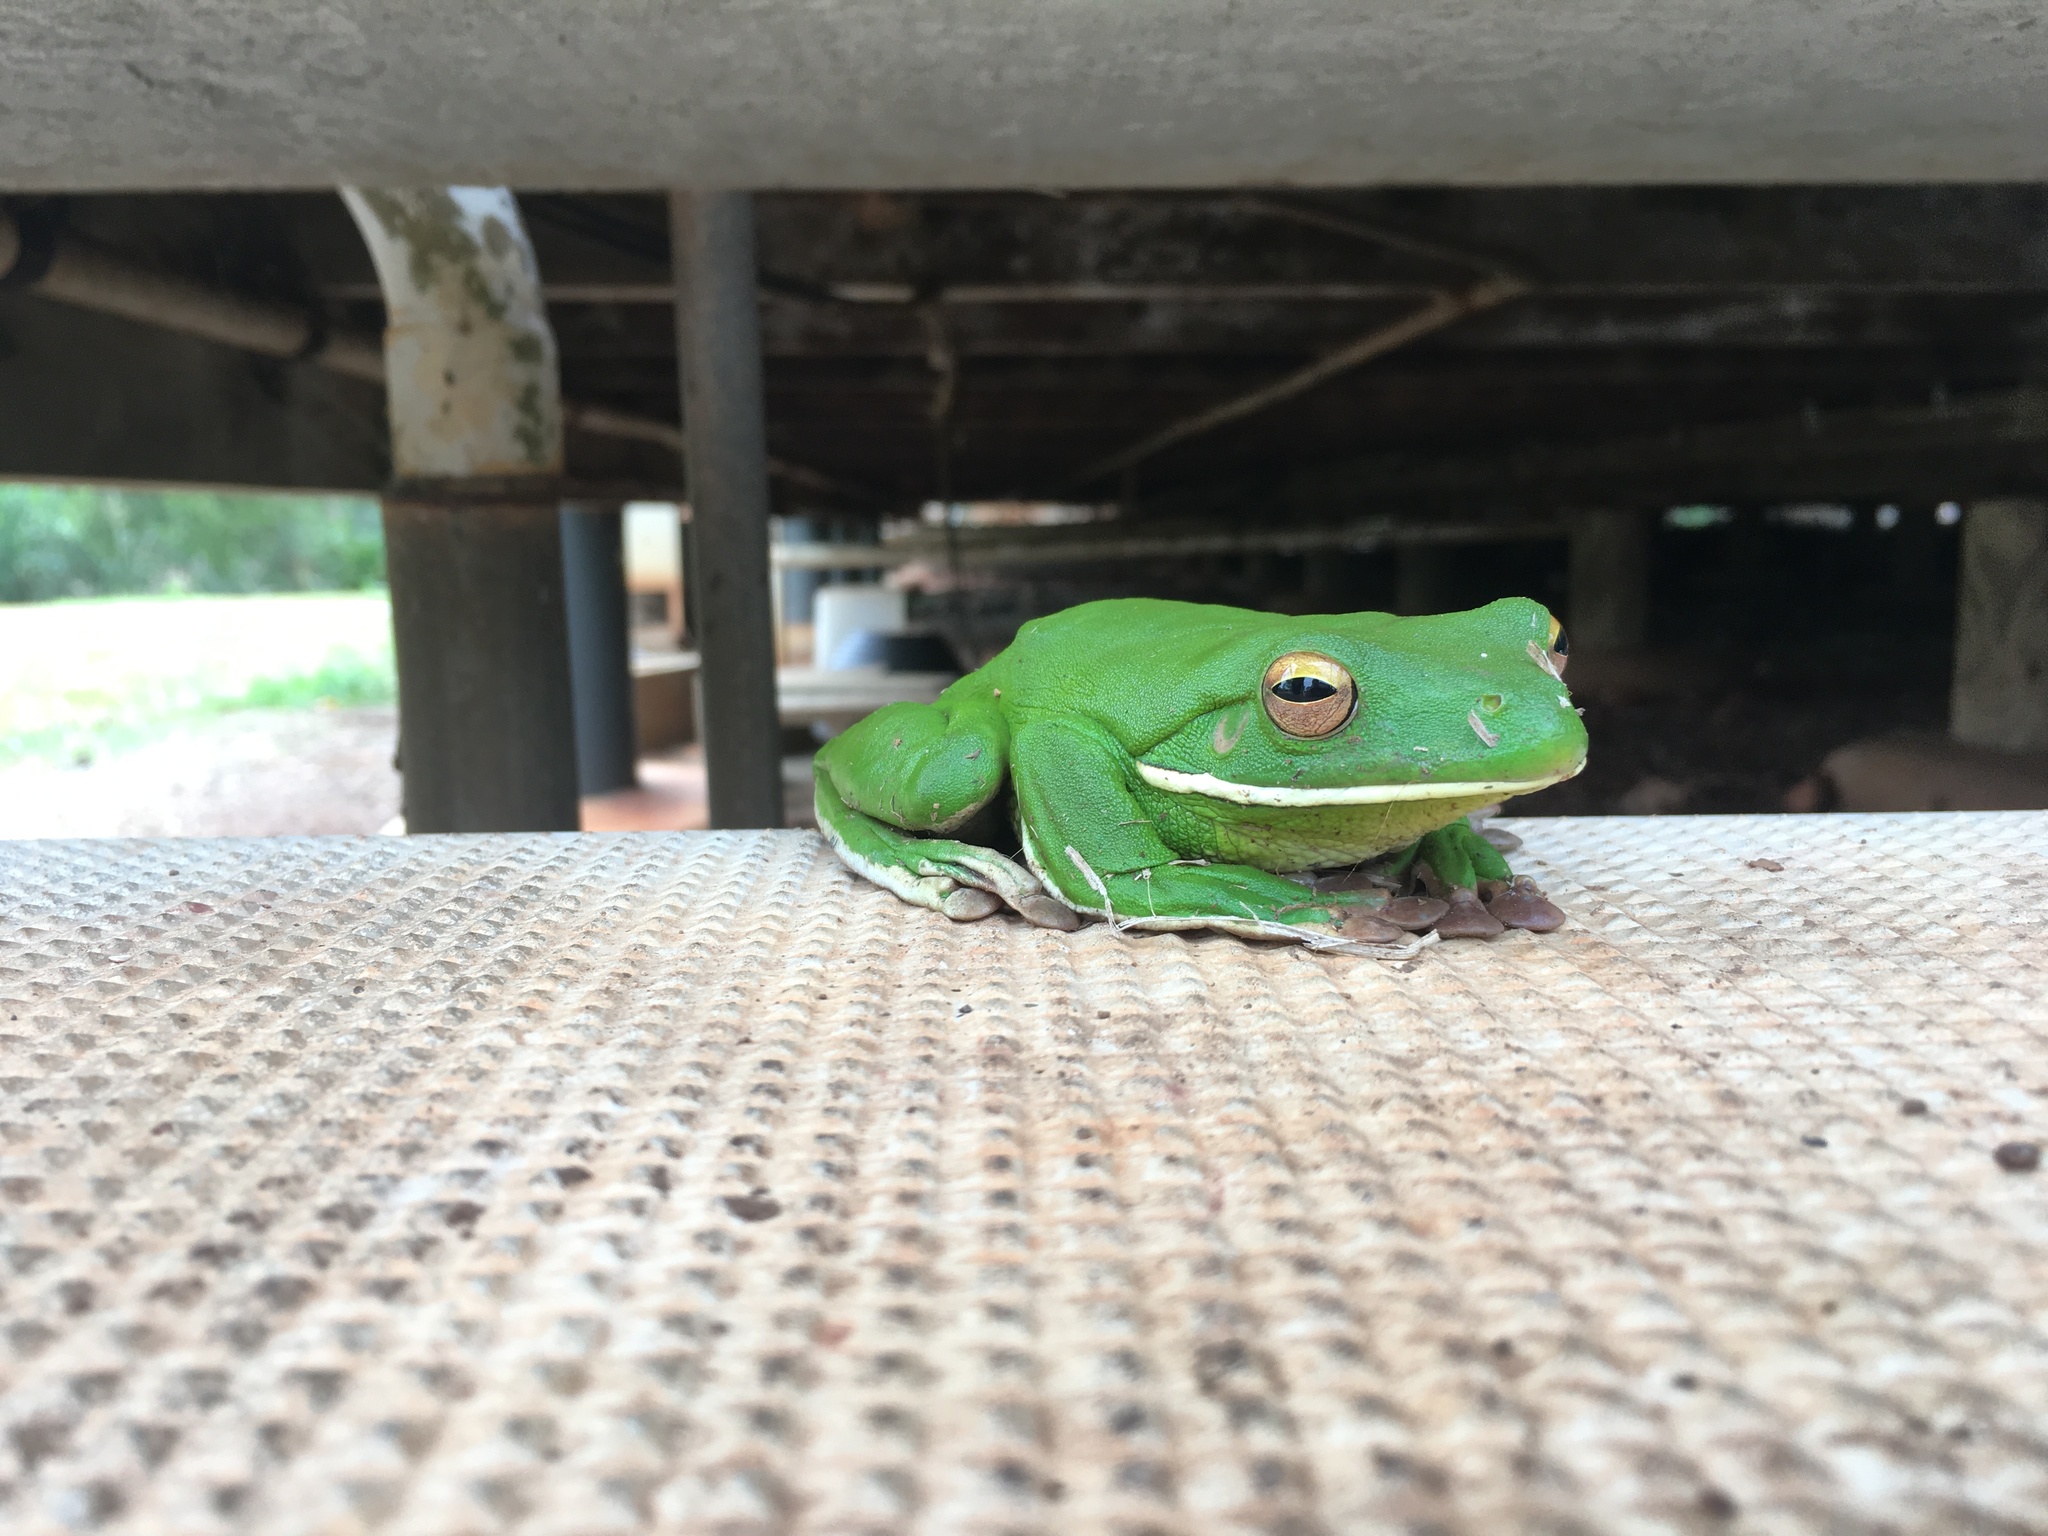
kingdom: Animalia
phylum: Chordata
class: Amphibia
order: Anura
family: Pelodryadidae
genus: Nyctimystes
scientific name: Nyctimystes infrafrenatus
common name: Australian giant treefrog
